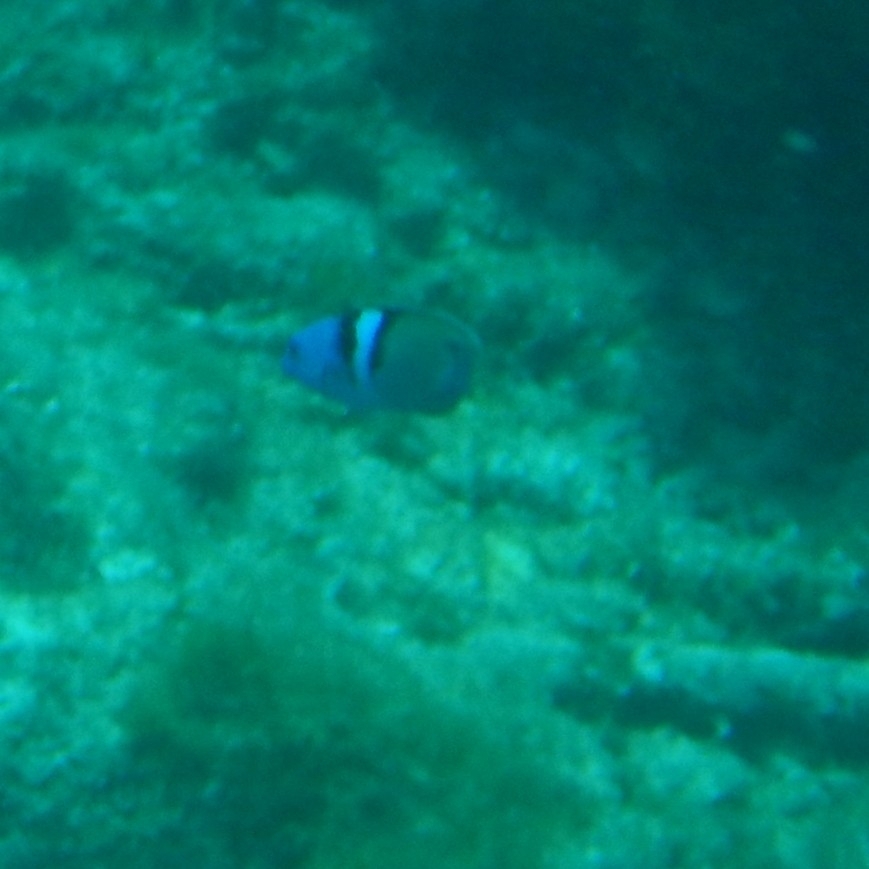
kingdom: Animalia
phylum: Chordata
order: Perciformes
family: Labridae
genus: Thalassoma
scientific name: Thalassoma bifasciatum
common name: Bluehead wrasse
